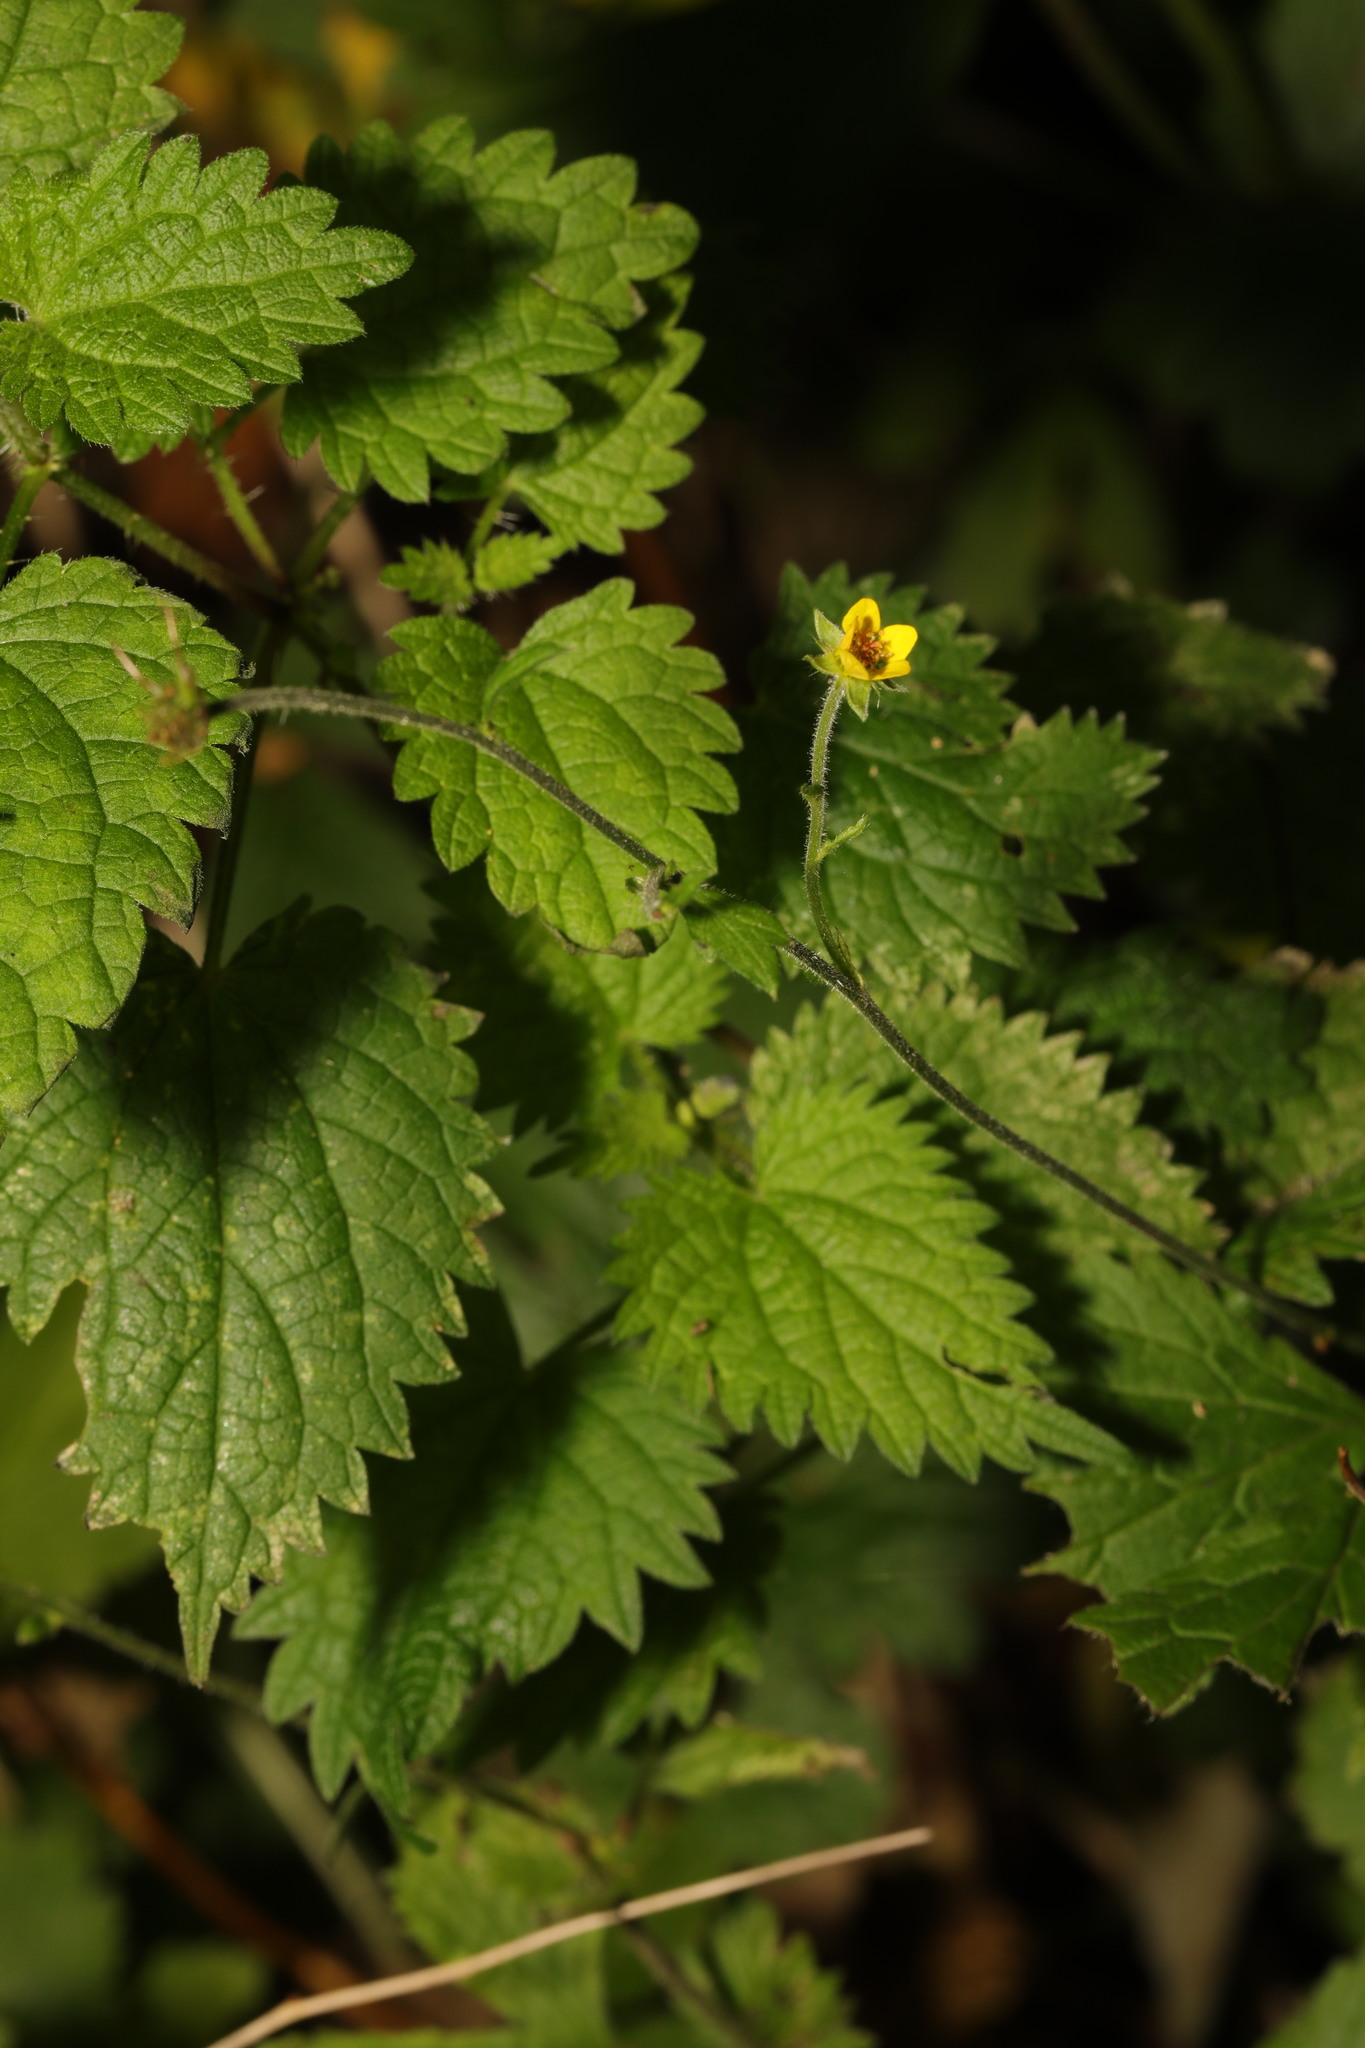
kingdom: Plantae
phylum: Tracheophyta
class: Magnoliopsida
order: Rosales
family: Rosaceae
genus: Geum
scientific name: Geum urbanum
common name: Wood avens
